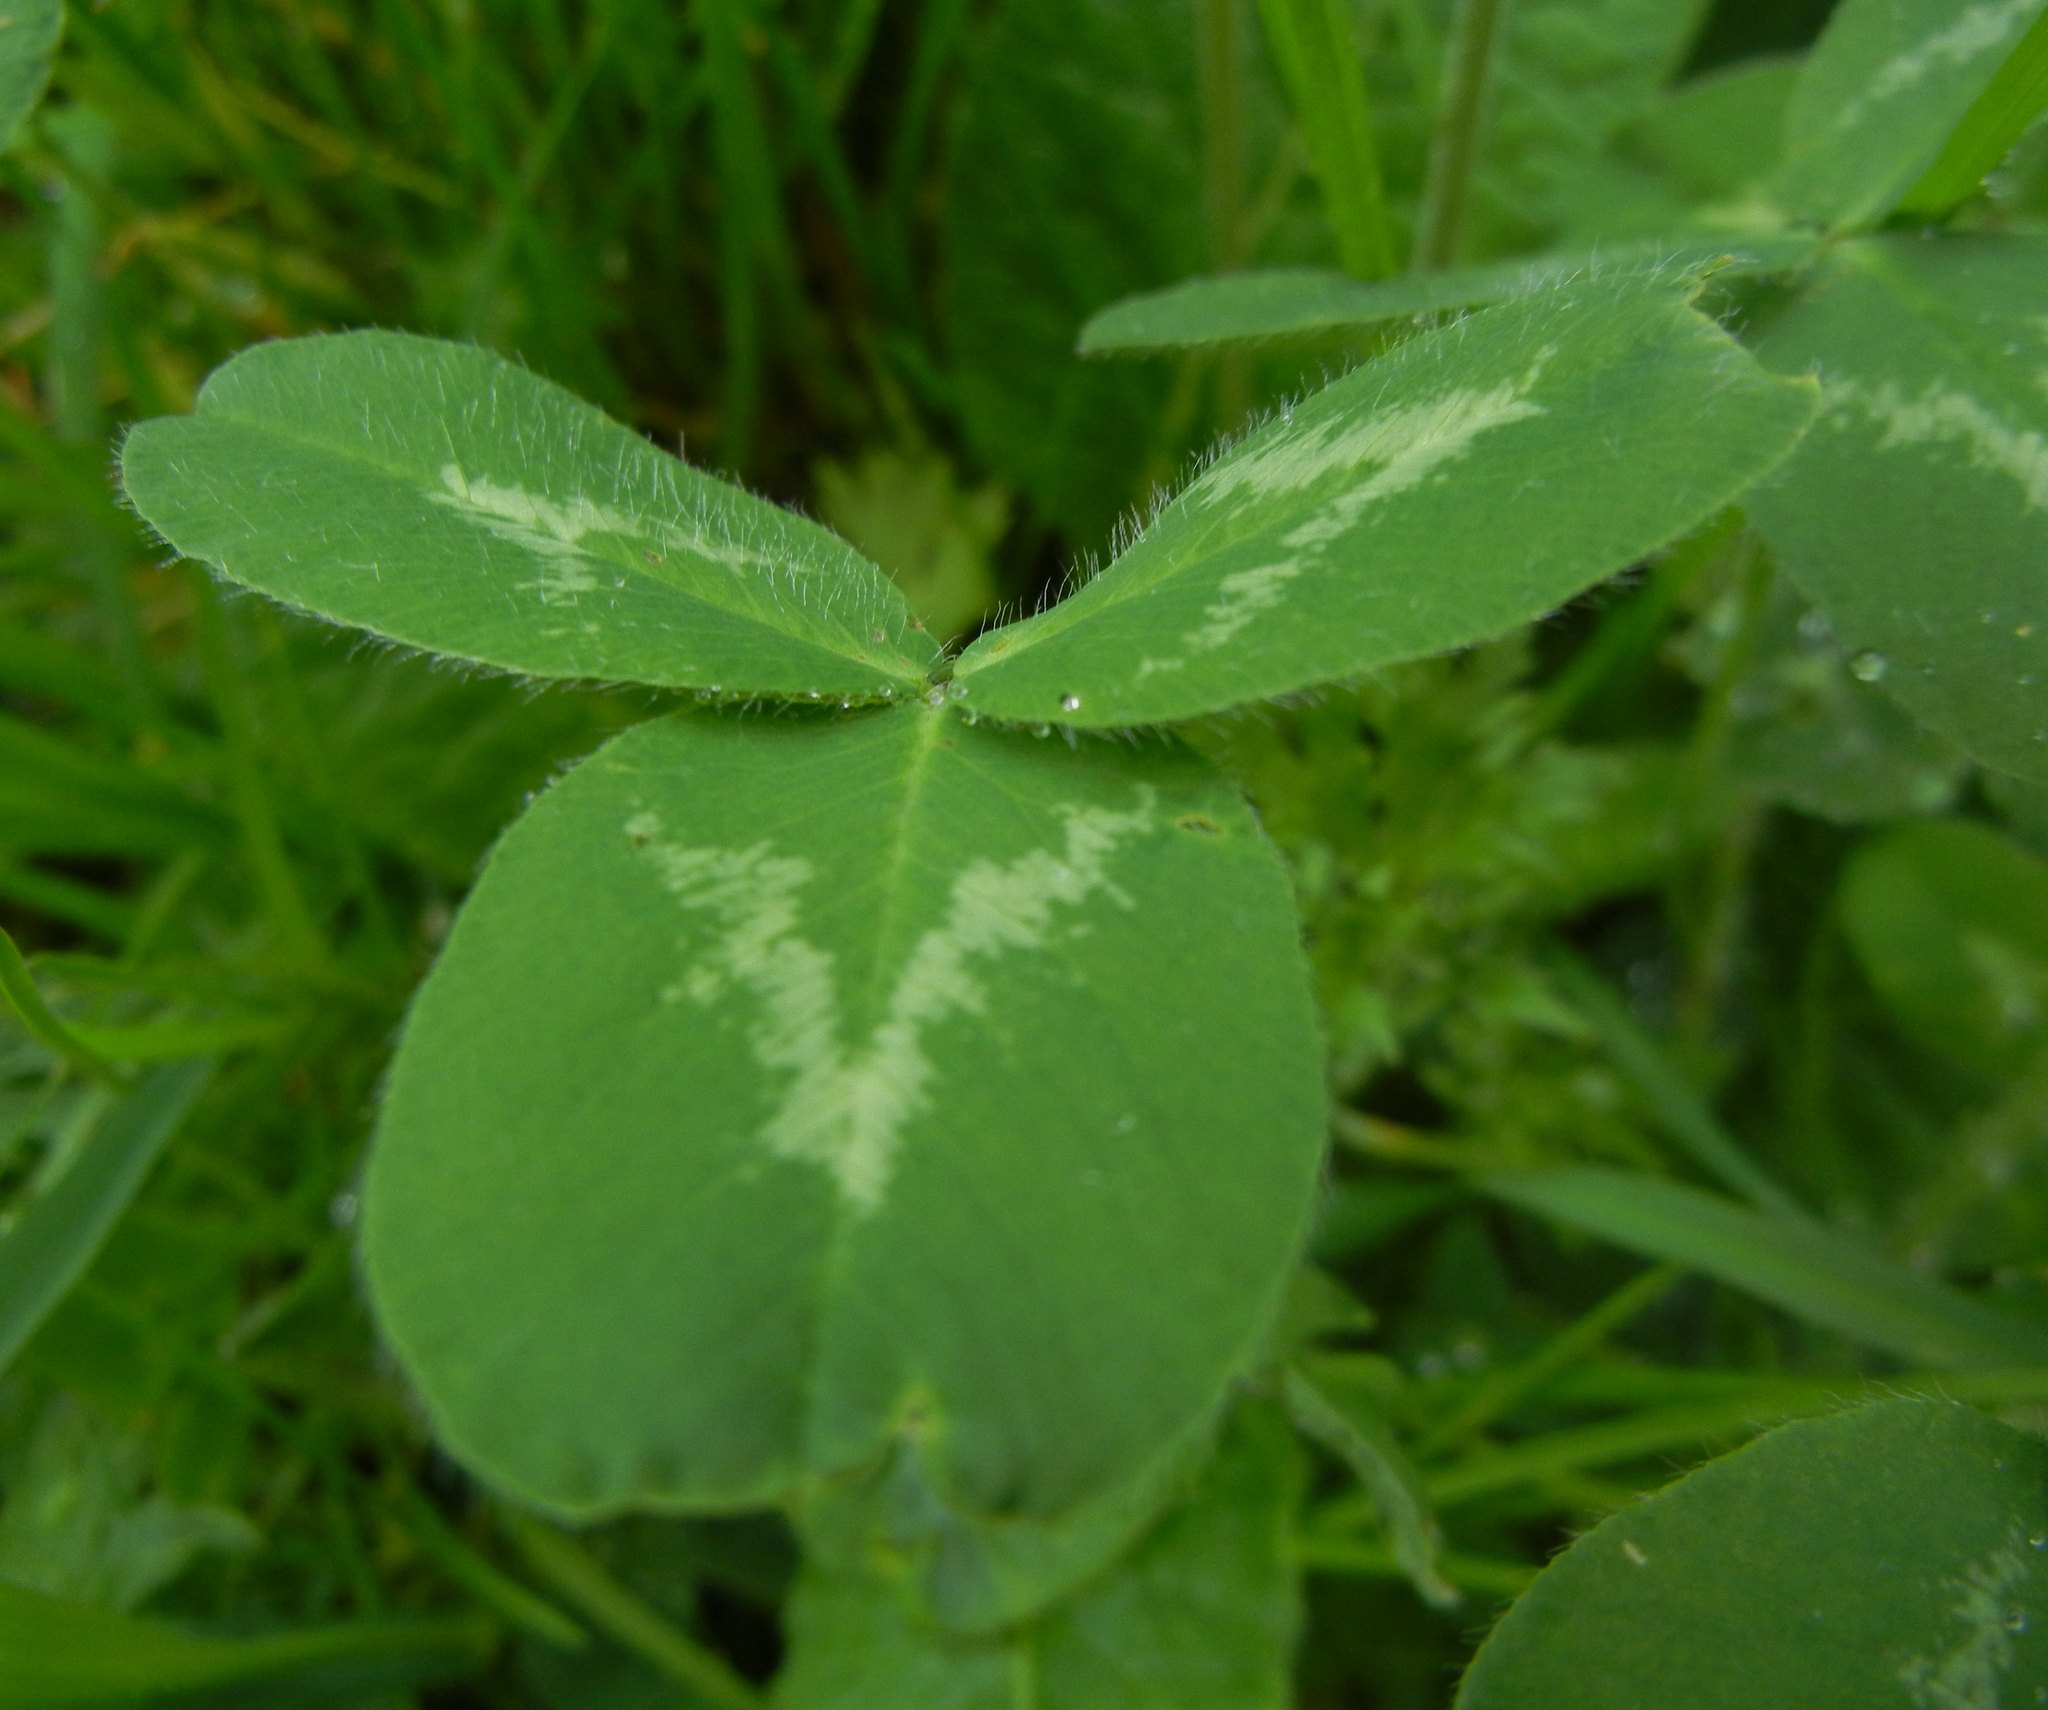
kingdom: Plantae
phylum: Tracheophyta
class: Magnoliopsida
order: Fabales
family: Fabaceae
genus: Trifolium
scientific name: Trifolium pratense
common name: Red clover
